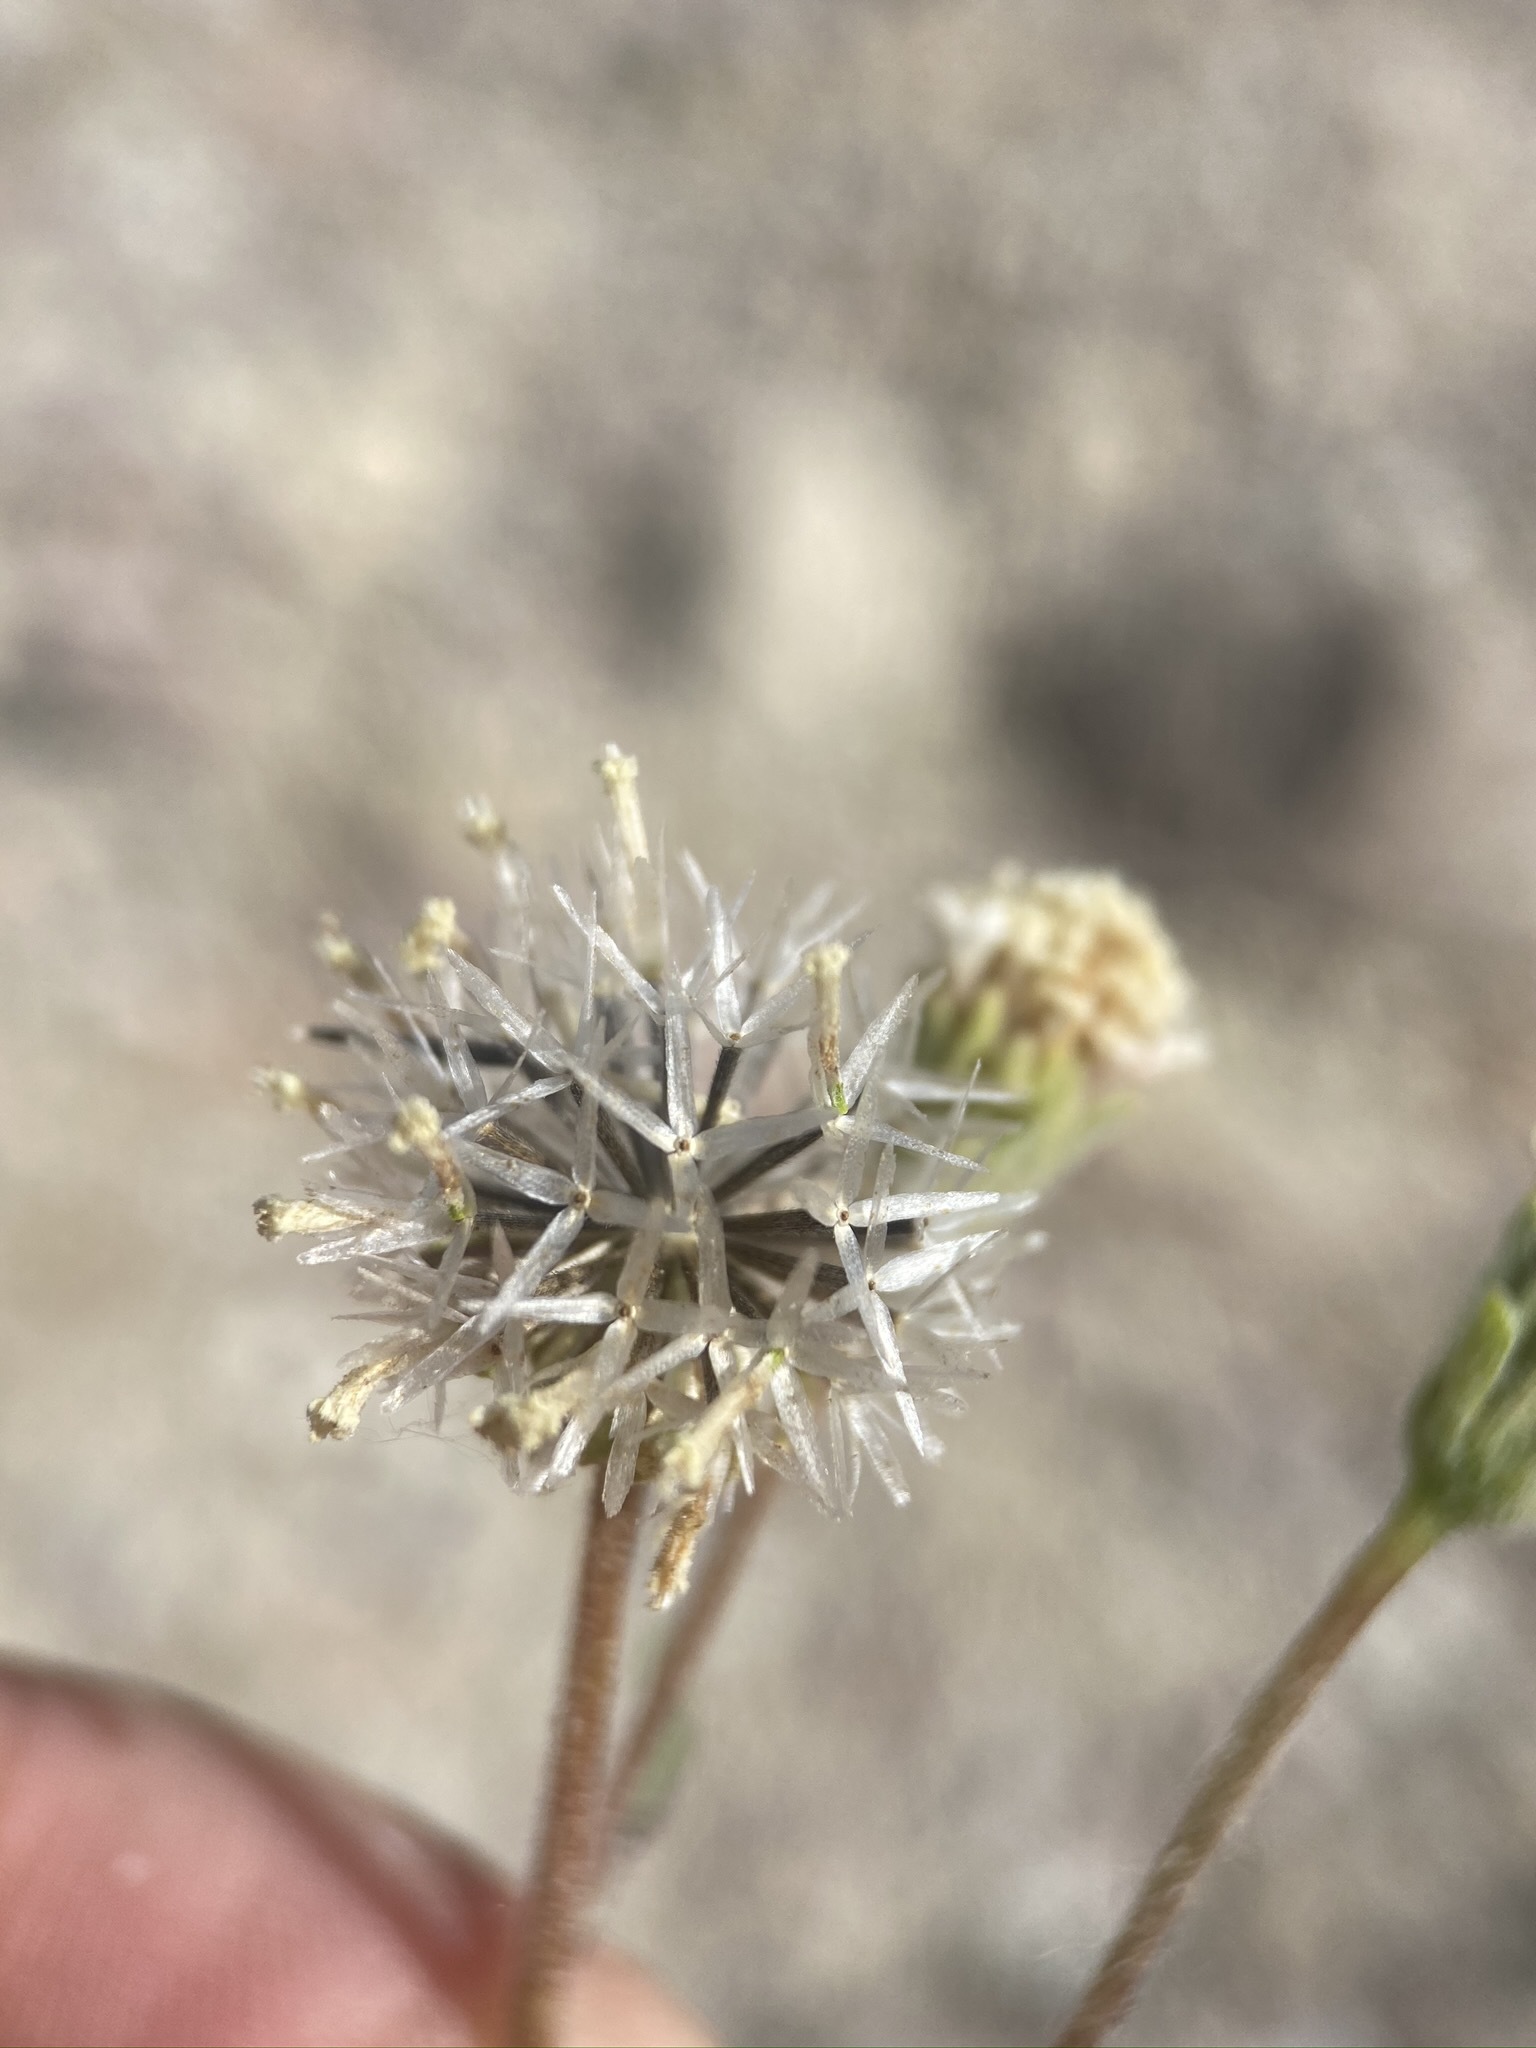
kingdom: Plantae
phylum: Tracheophyta
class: Magnoliopsida
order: Asterales
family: Asteraceae
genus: Chaenactis
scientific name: Chaenactis stevioides
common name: Desert pincushion
